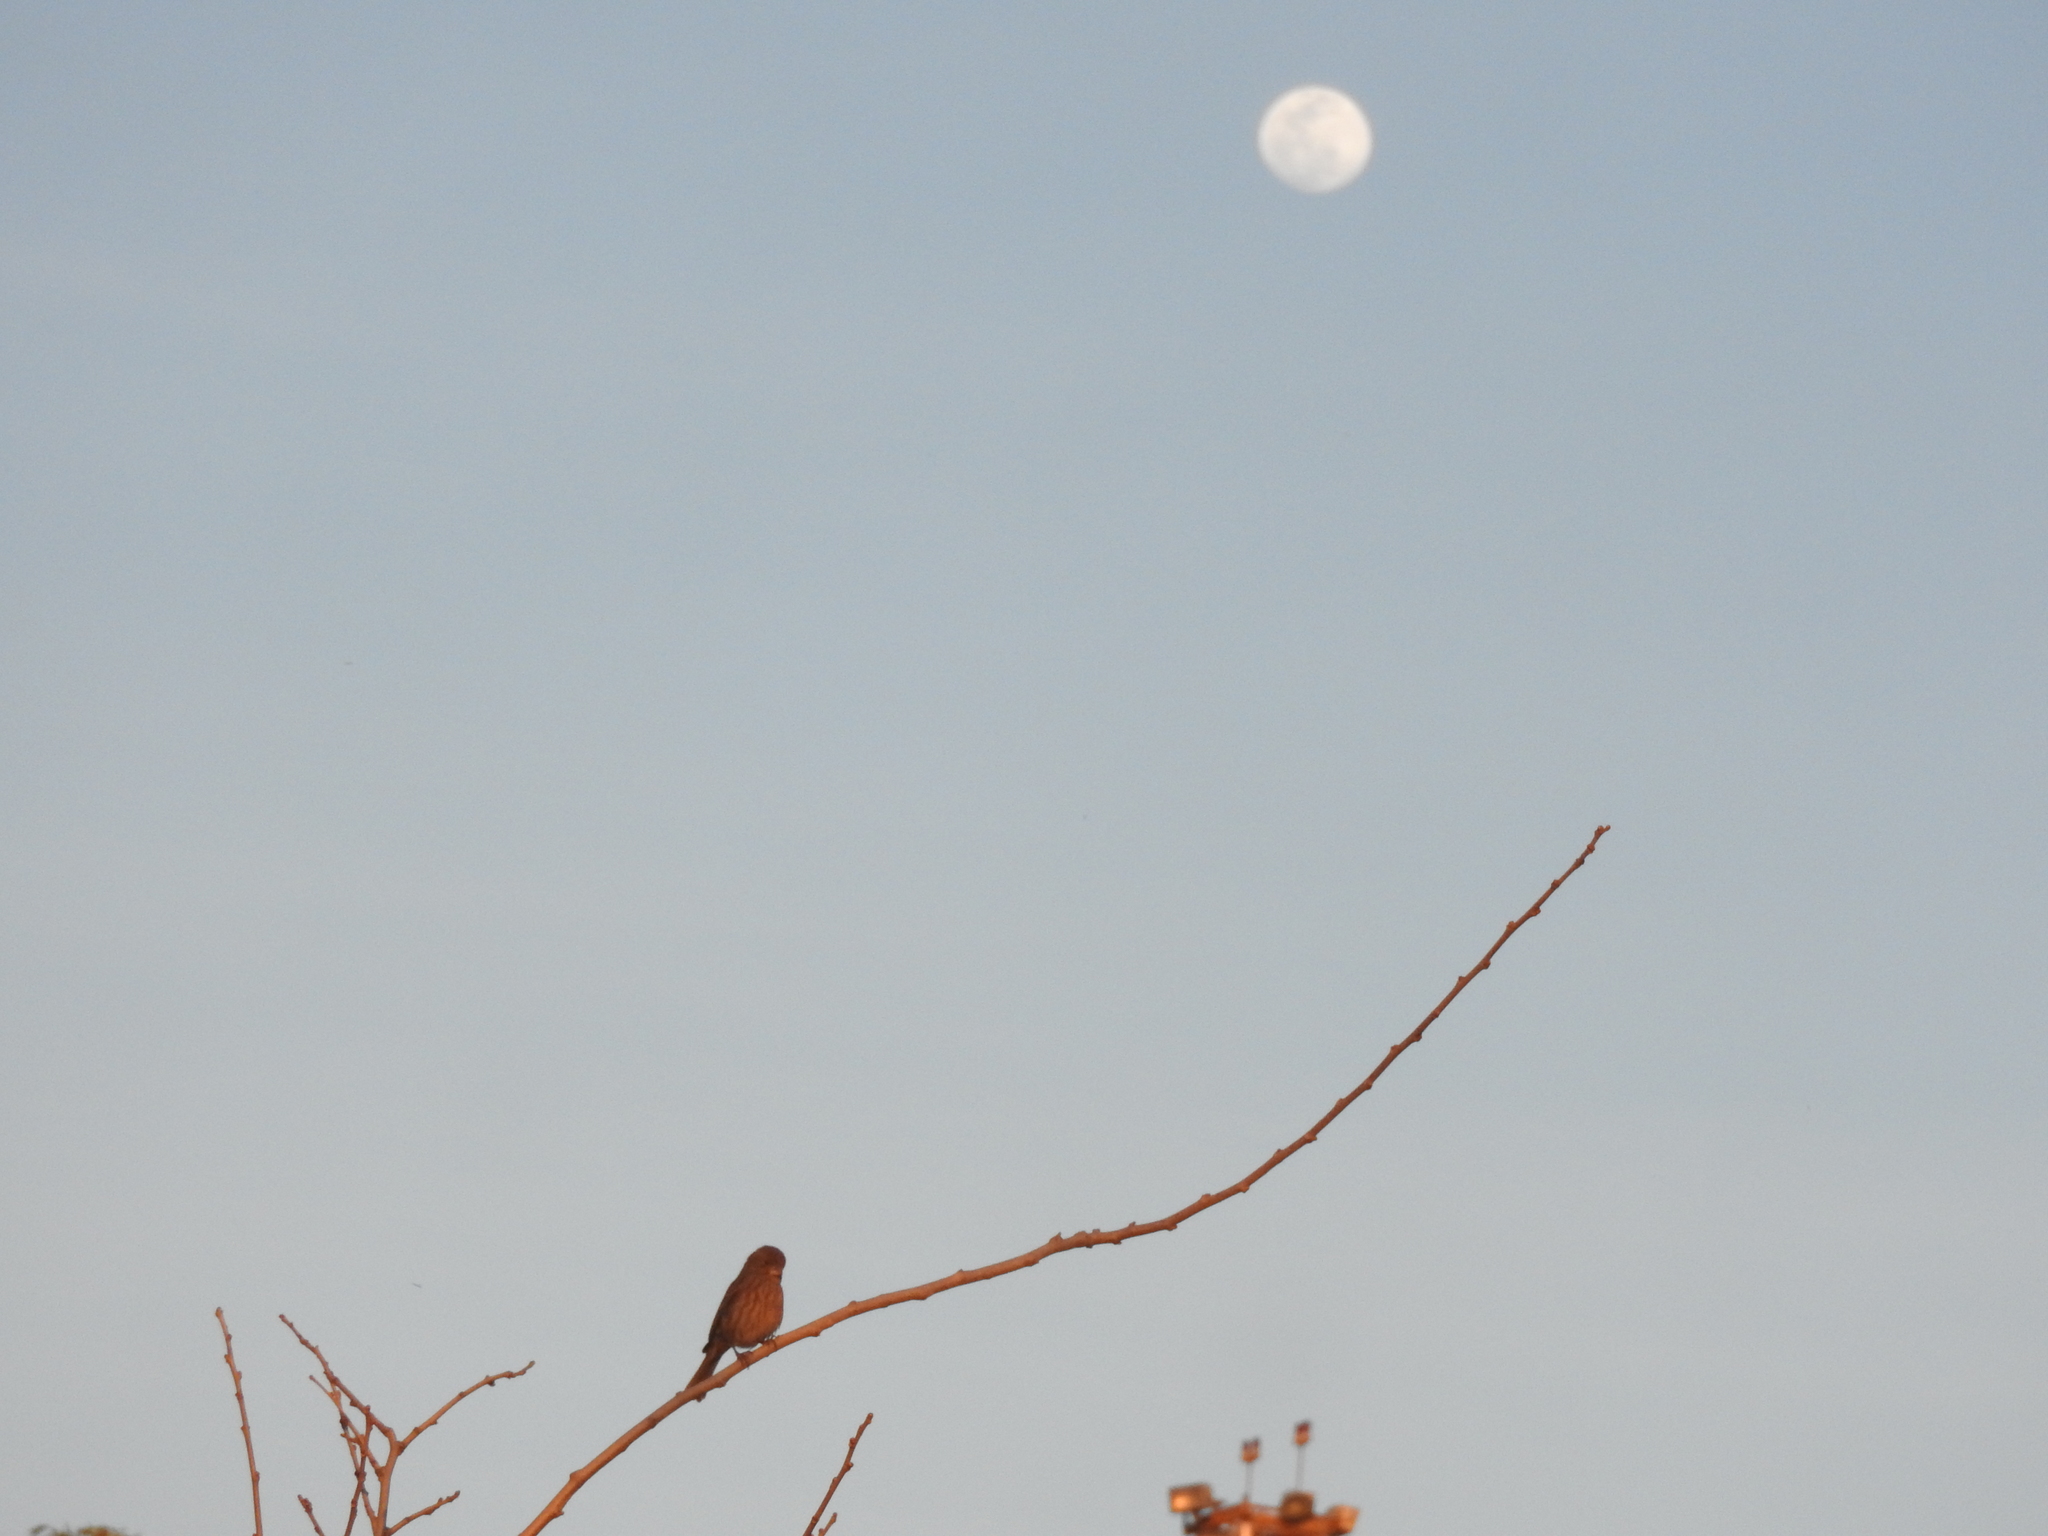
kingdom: Animalia
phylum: Chordata
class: Aves
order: Passeriformes
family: Fringillidae
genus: Haemorhous
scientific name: Haemorhous mexicanus
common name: House finch
